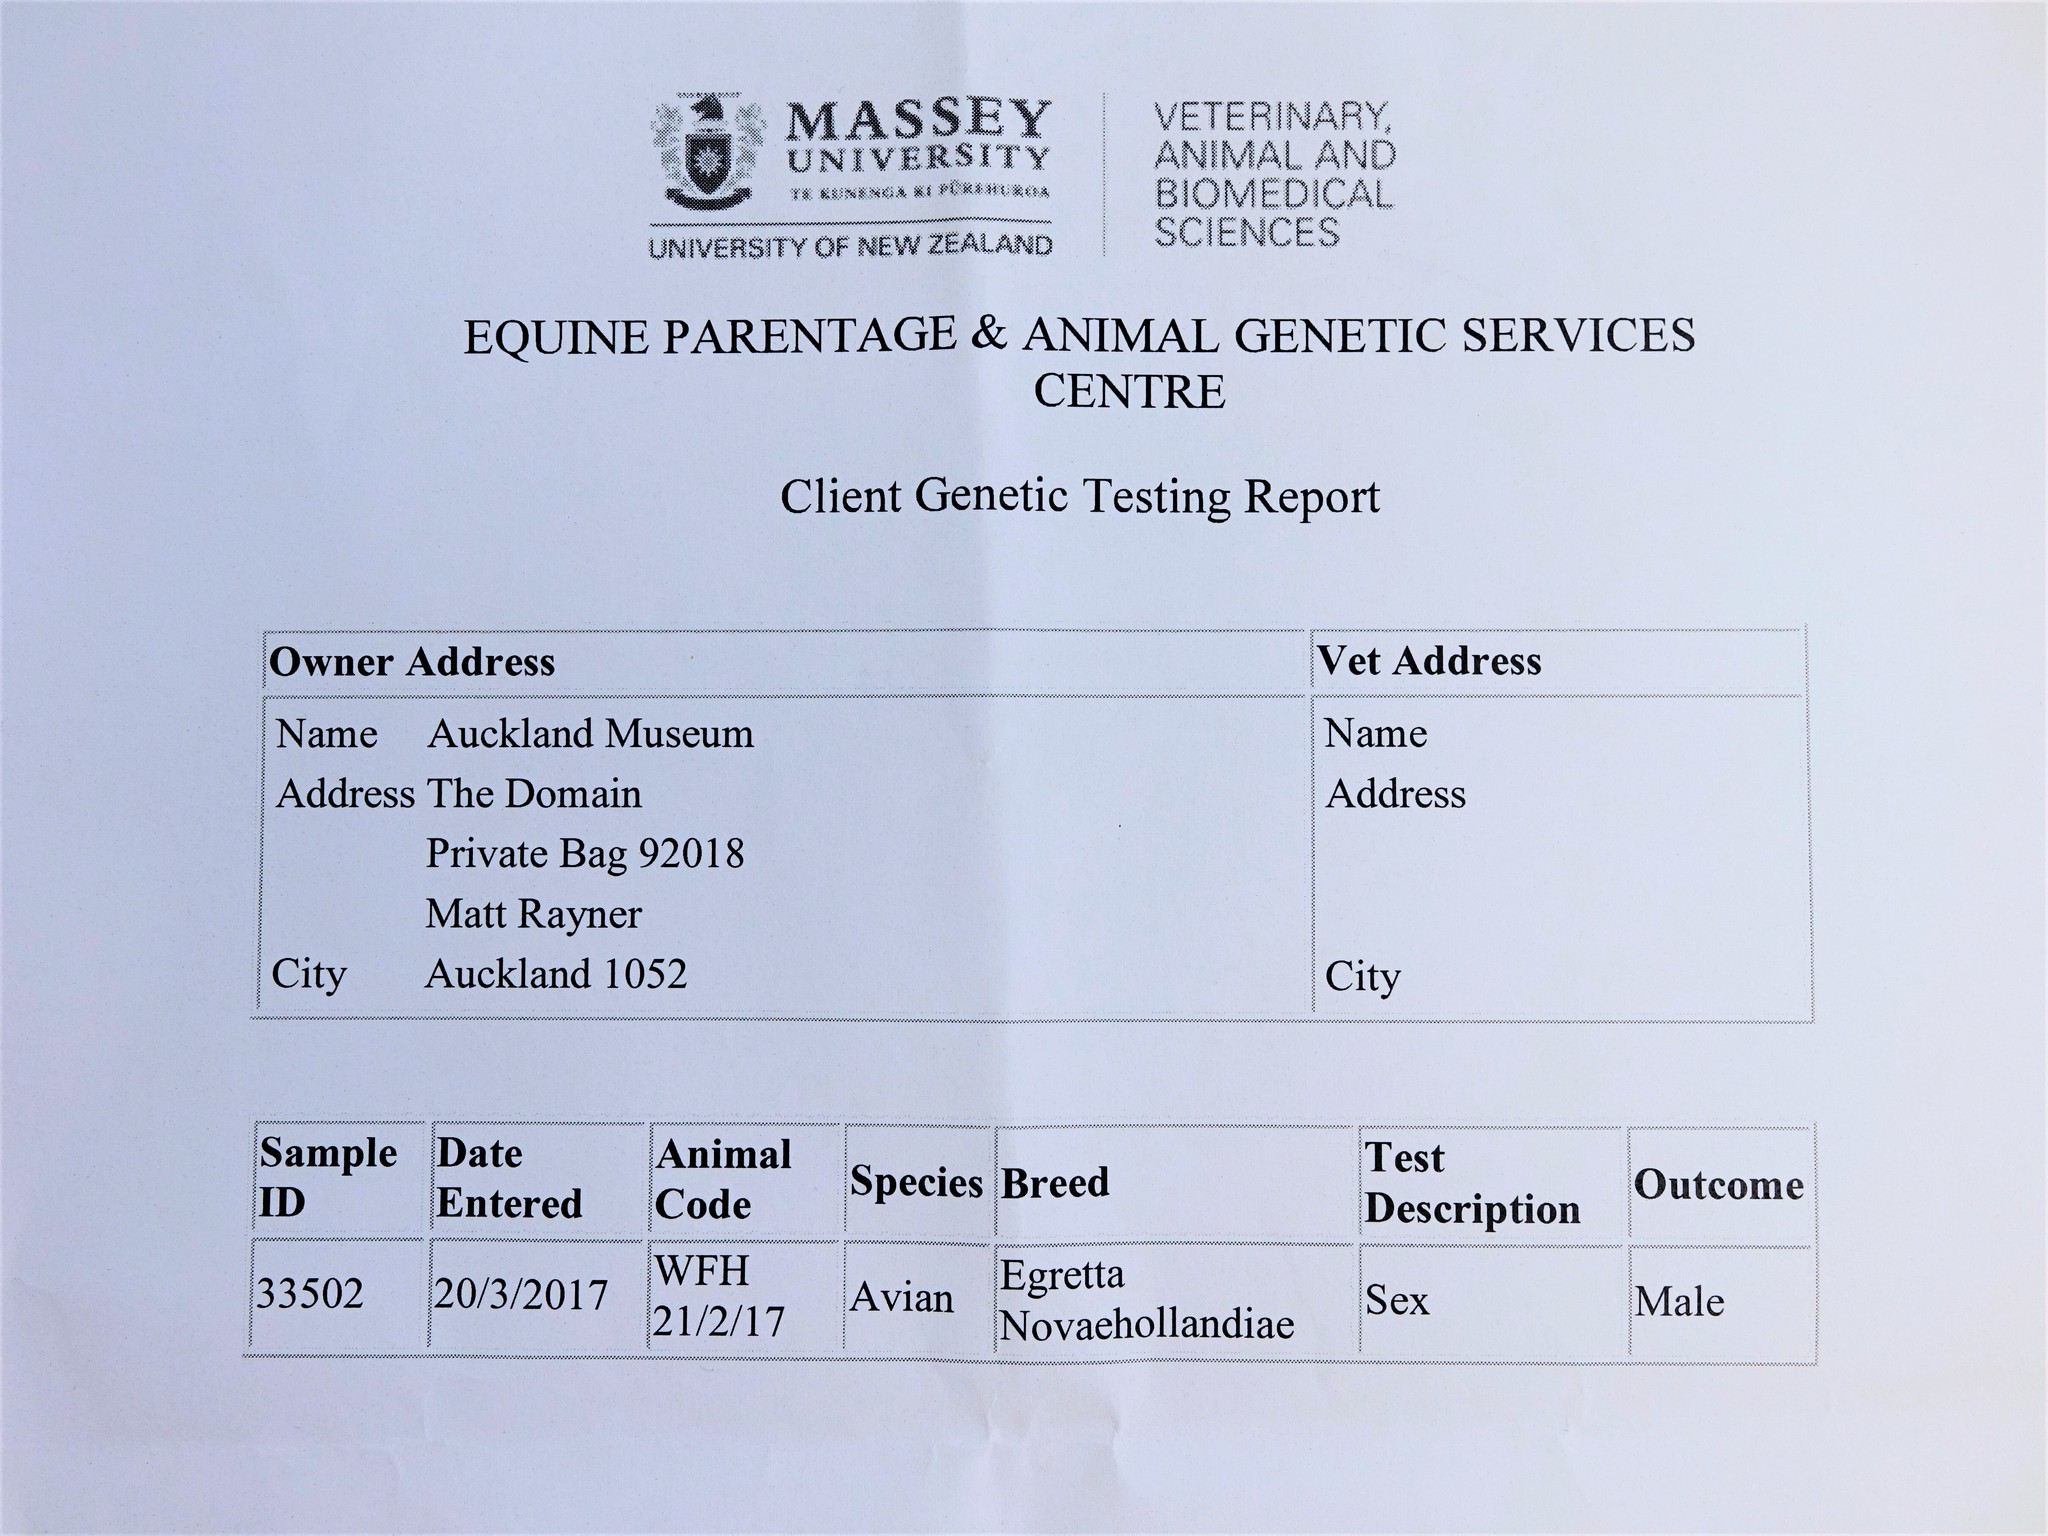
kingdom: Animalia
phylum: Chordata
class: Aves
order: Pelecaniformes
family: Ardeidae
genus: Egretta
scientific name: Egretta novaehollandiae
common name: White-faced heron
